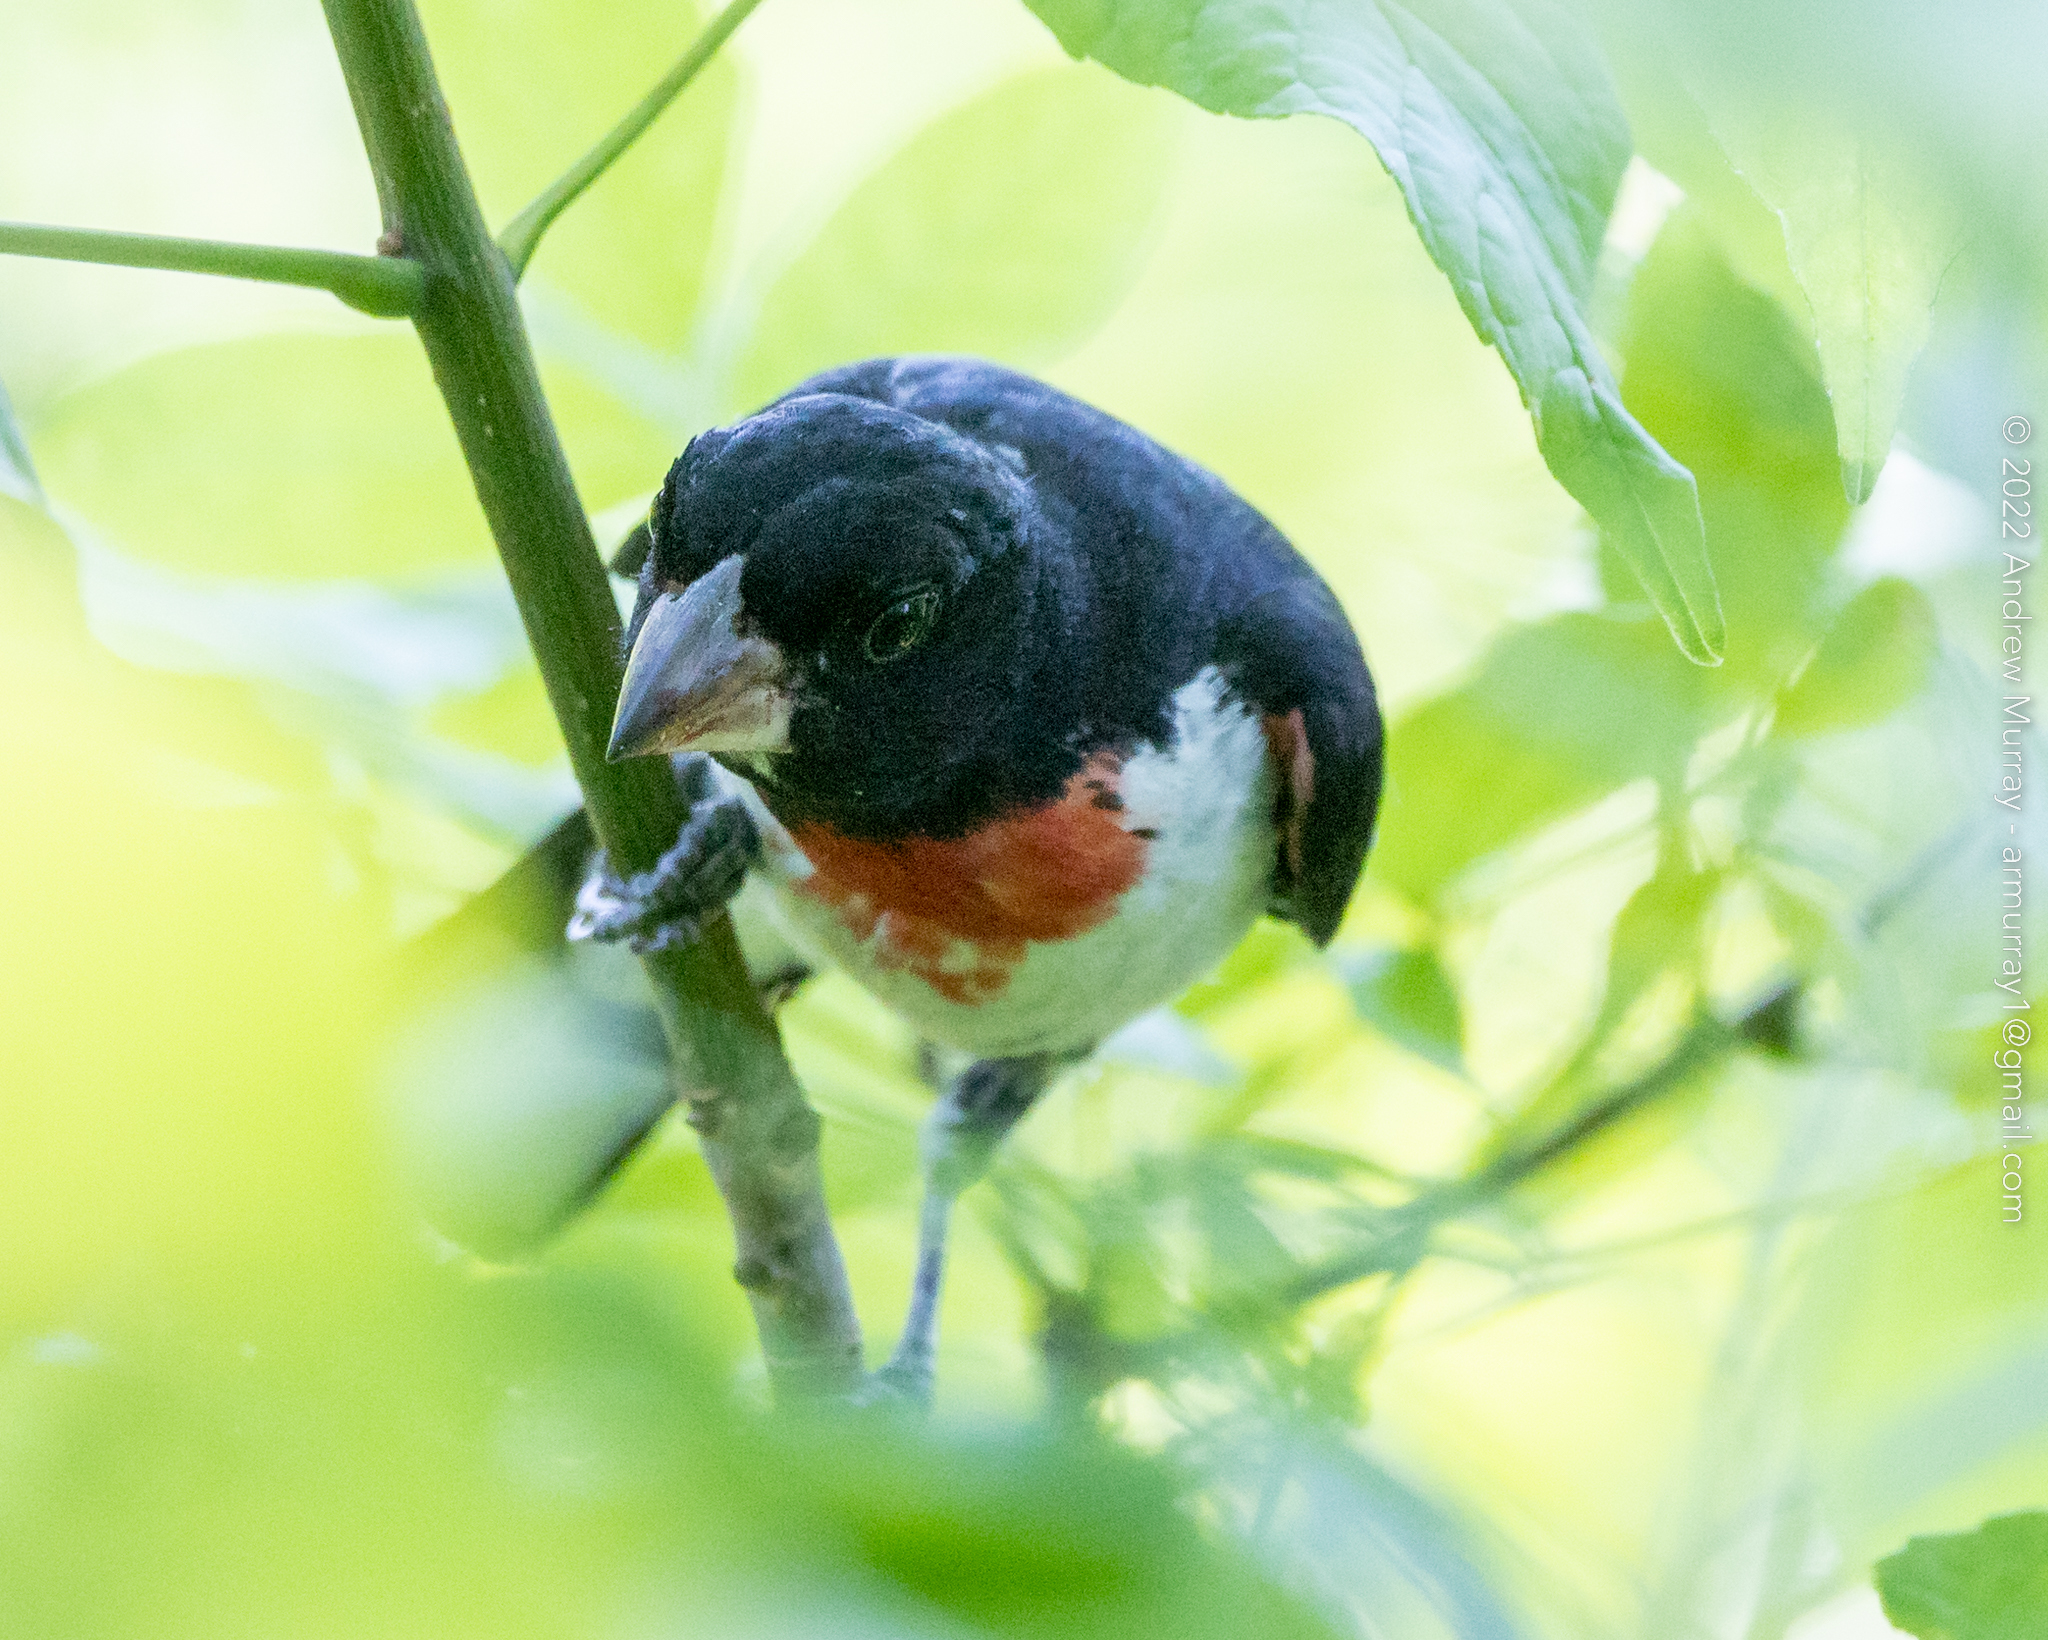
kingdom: Animalia
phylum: Chordata
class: Aves
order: Passeriformes
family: Cardinalidae
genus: Pheucticus
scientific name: Pheucticus ludovicianus
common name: Rose-breasted grosbeak
